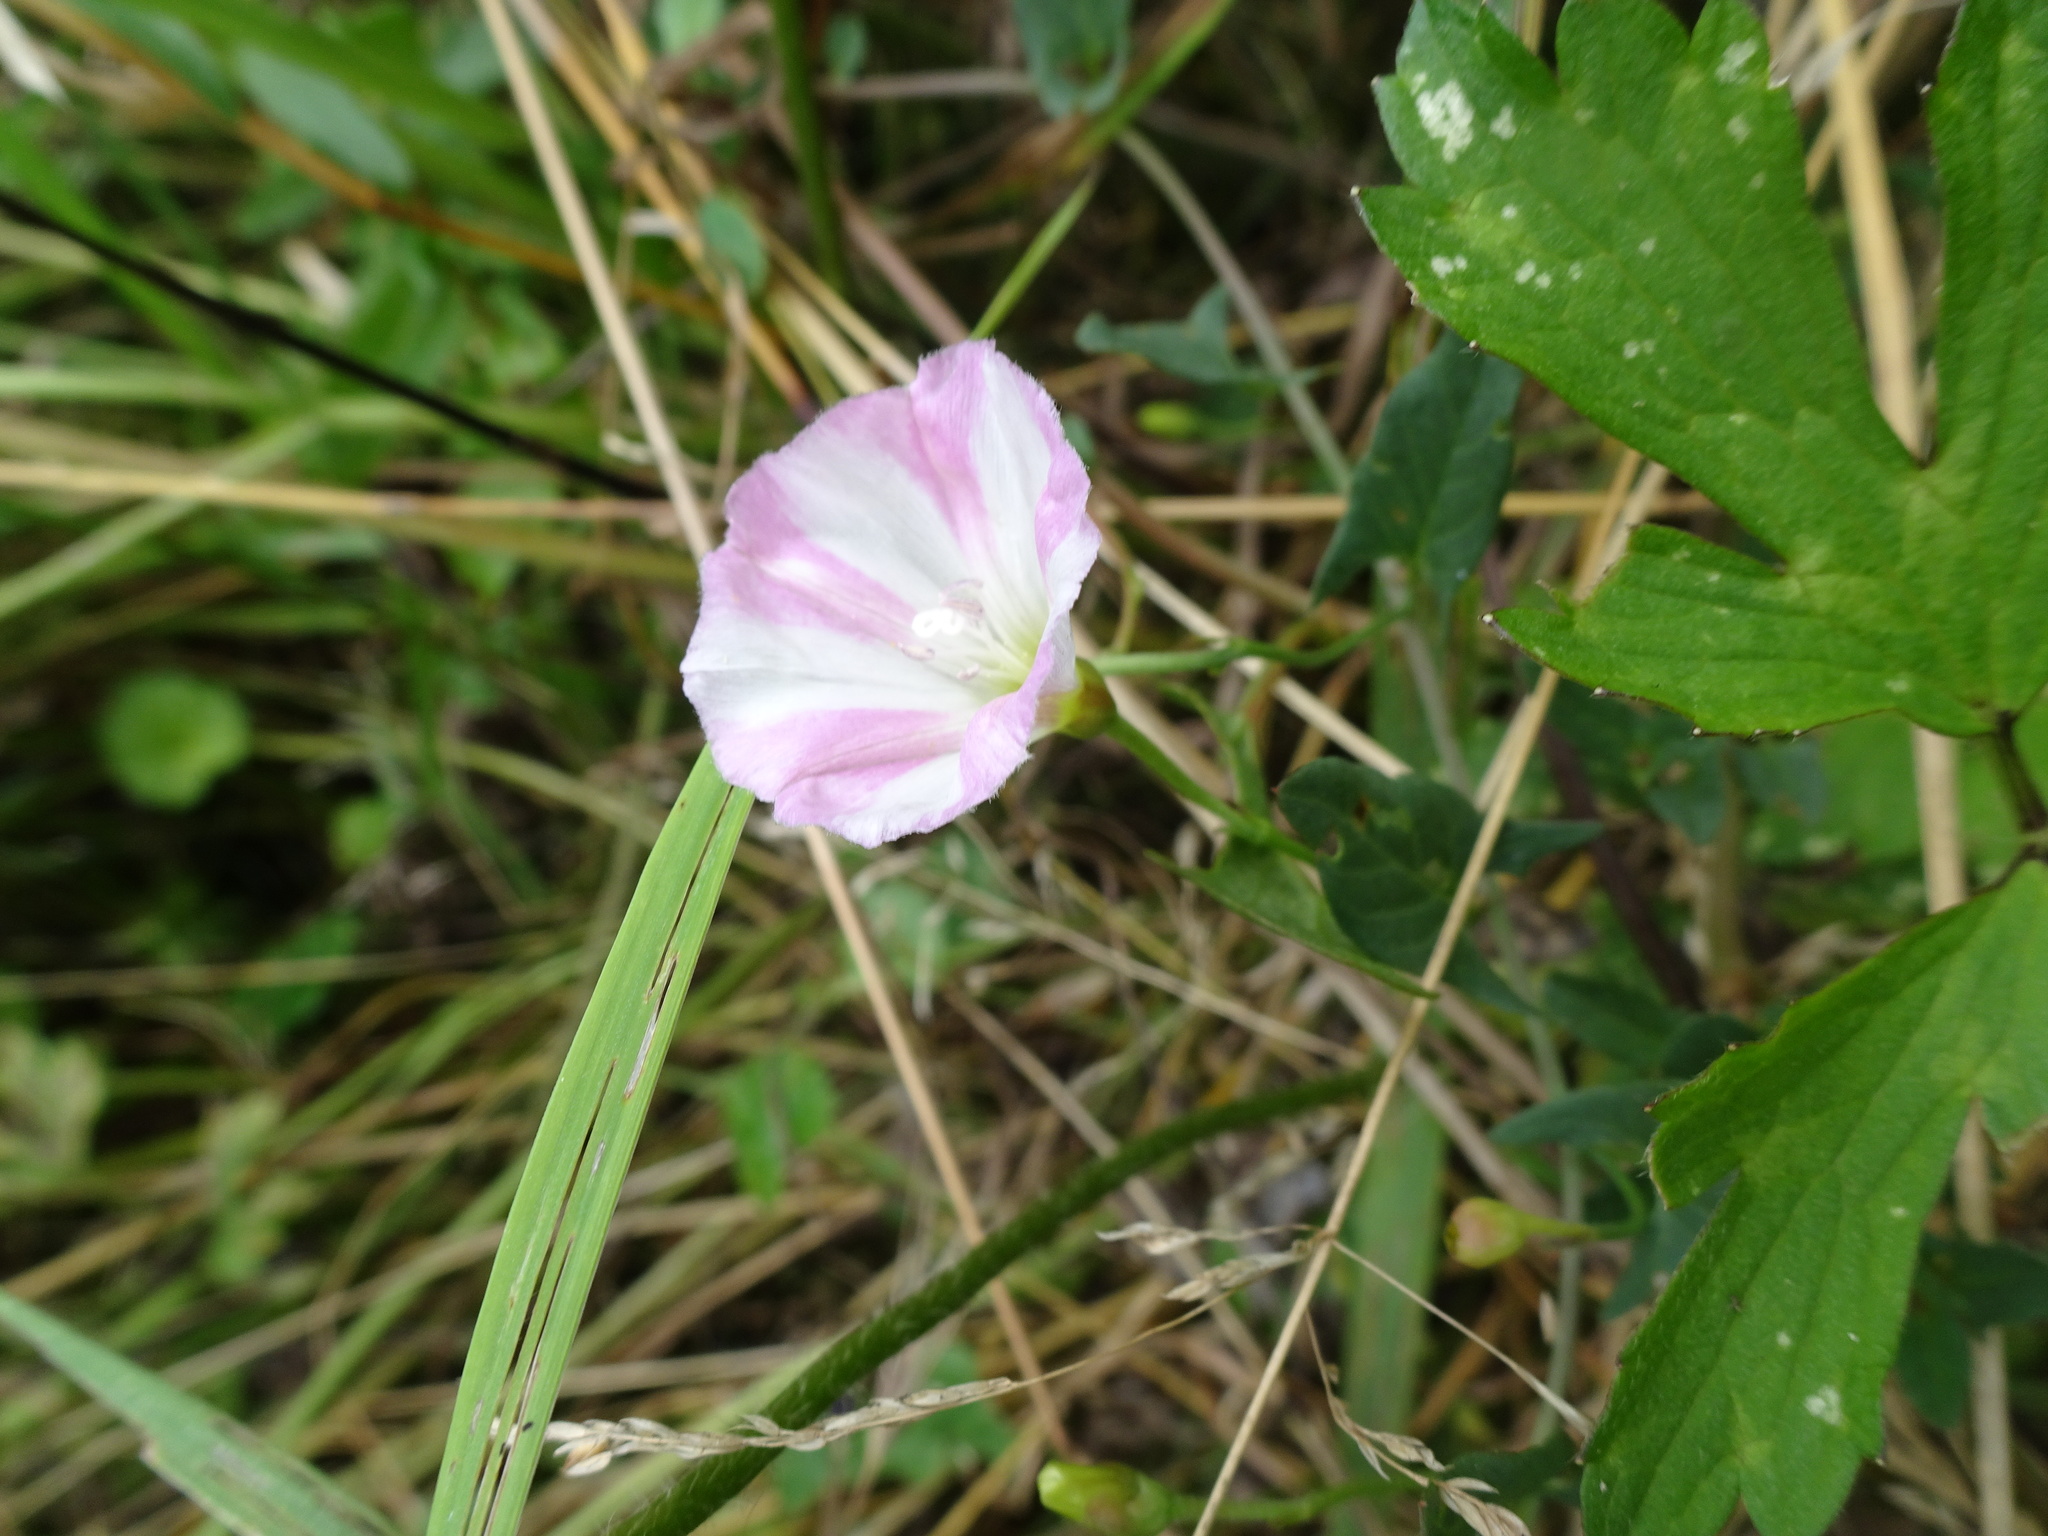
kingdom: Plantae
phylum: Tracheophyta
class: Magnoliopsida
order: Solanales
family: Convolvulaceae
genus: Convolvulus
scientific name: Convolvulus arvensis
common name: Field bindweed
